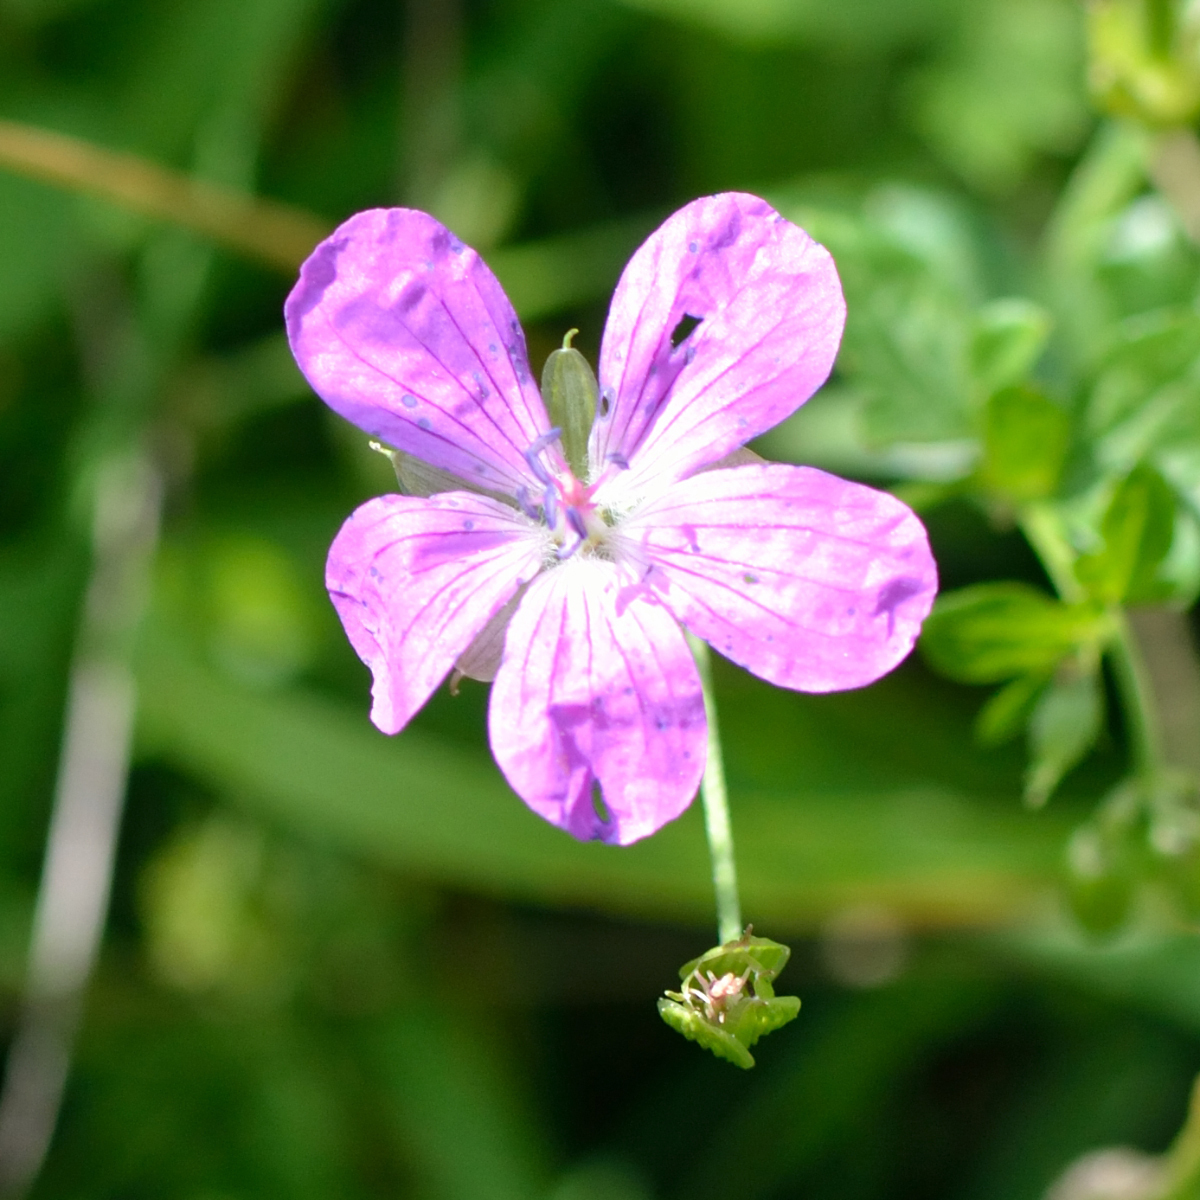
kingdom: Plantae
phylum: Tracheophyta
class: Magnoliopsida
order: Geraniales
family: Geraniaceae
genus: Geranium
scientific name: Geranium palustre
